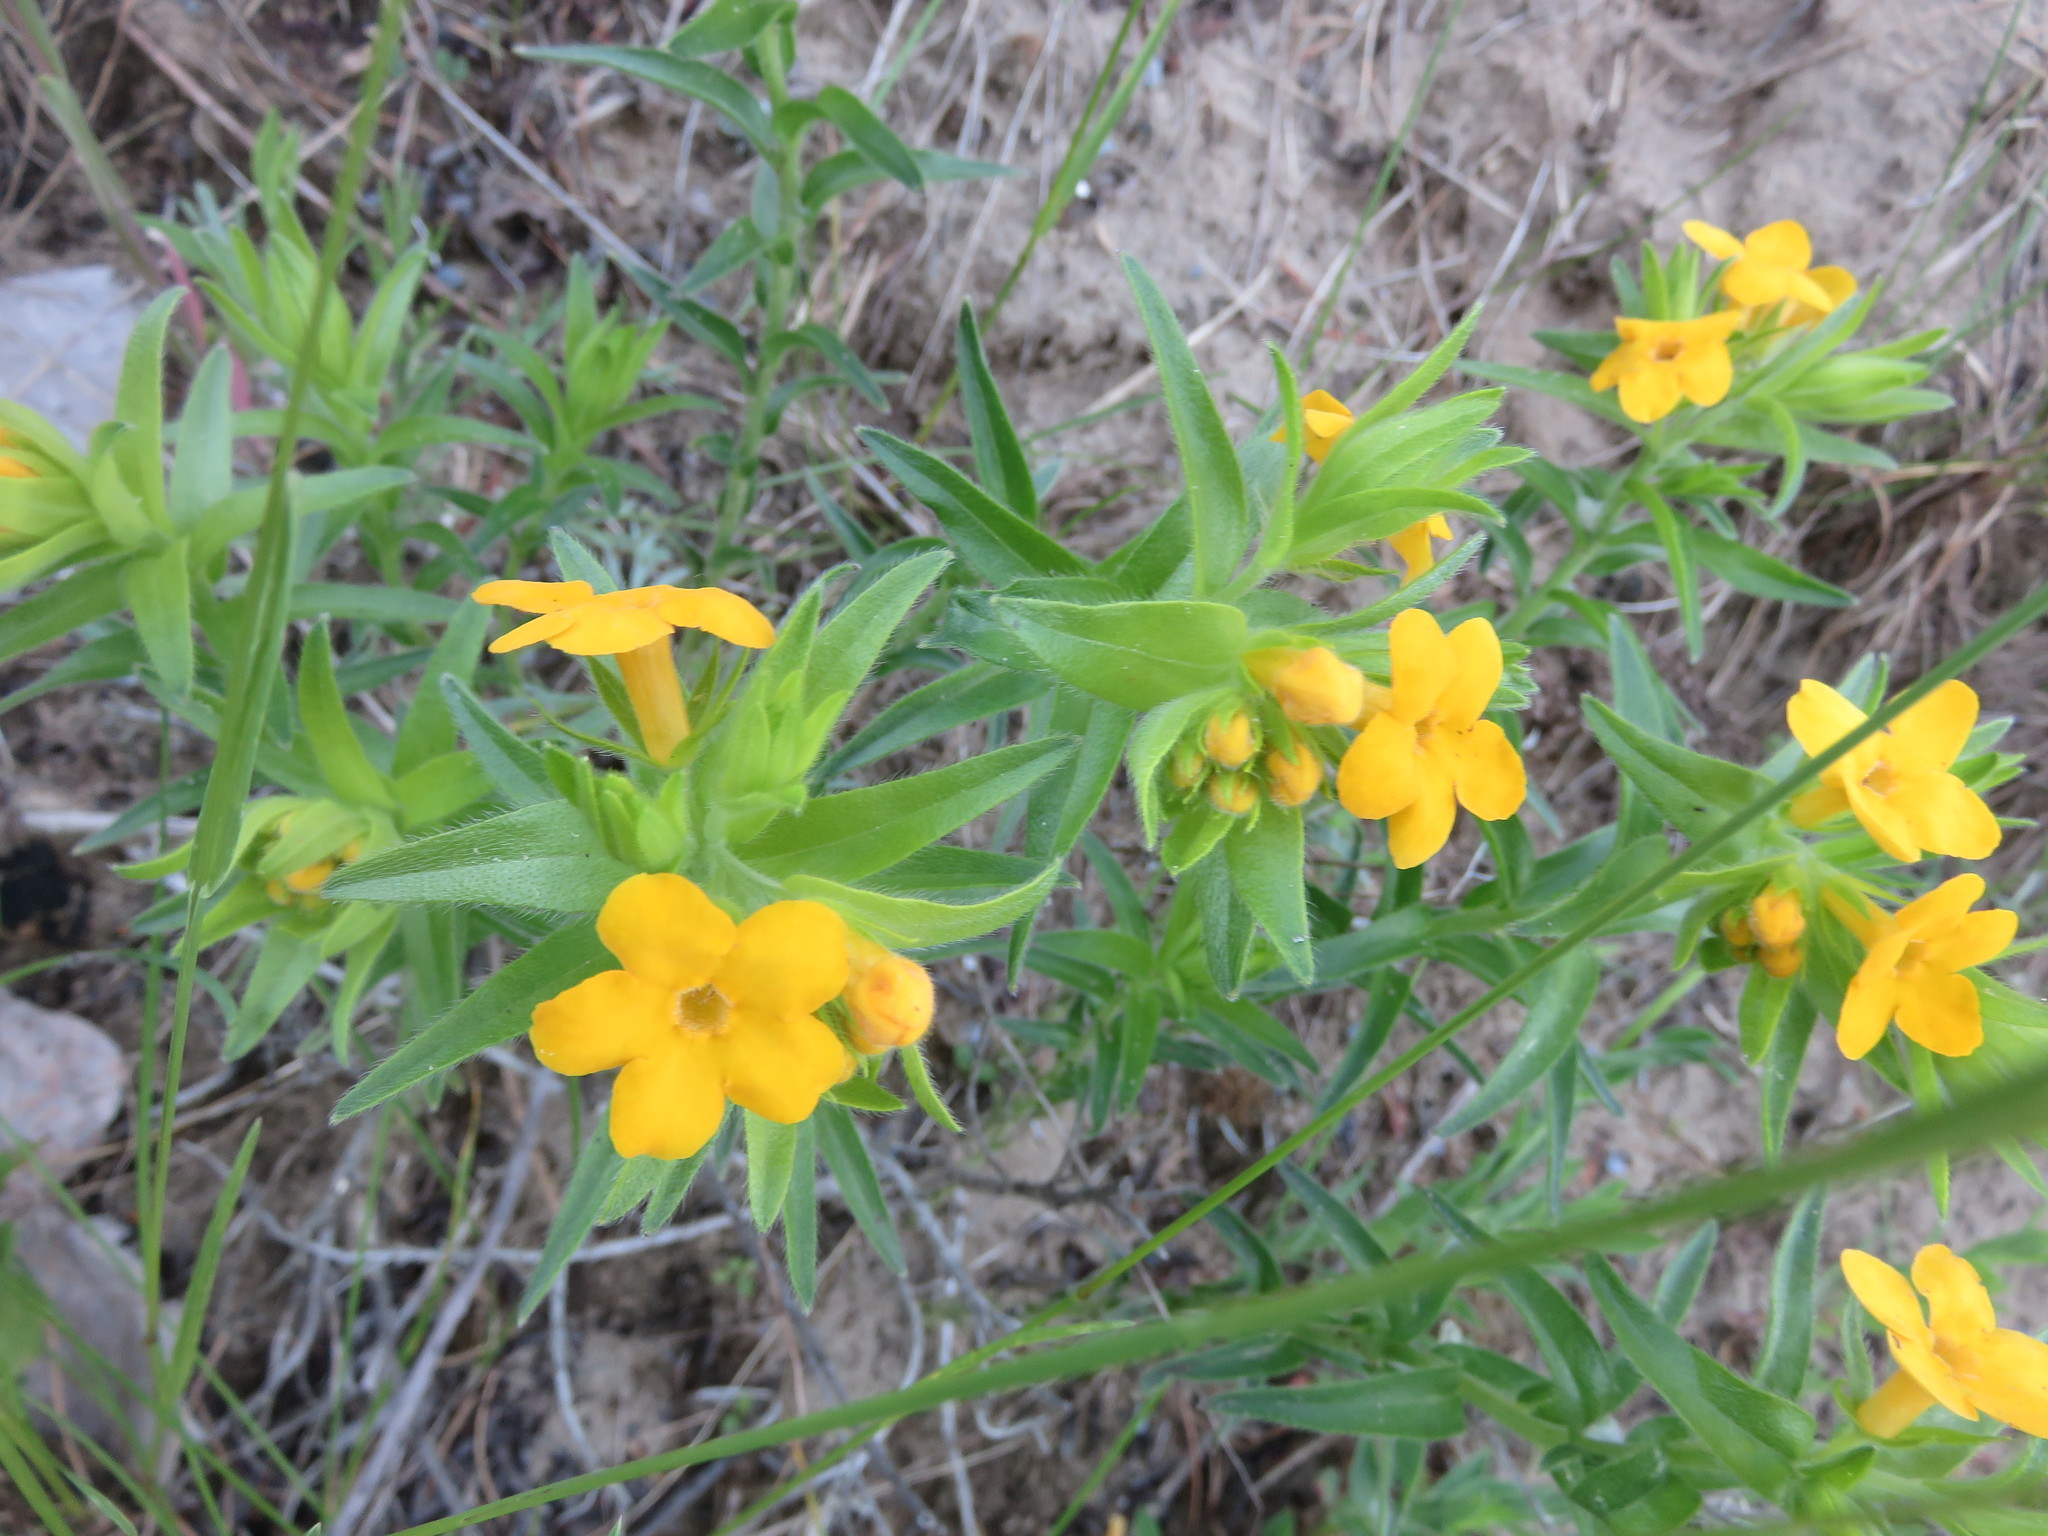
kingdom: Plantae
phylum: Tracheophyta
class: Magnoliopsida
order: Boraginales
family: Boraginaceae
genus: Lithospermum
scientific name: Lithospermum caroliniense
